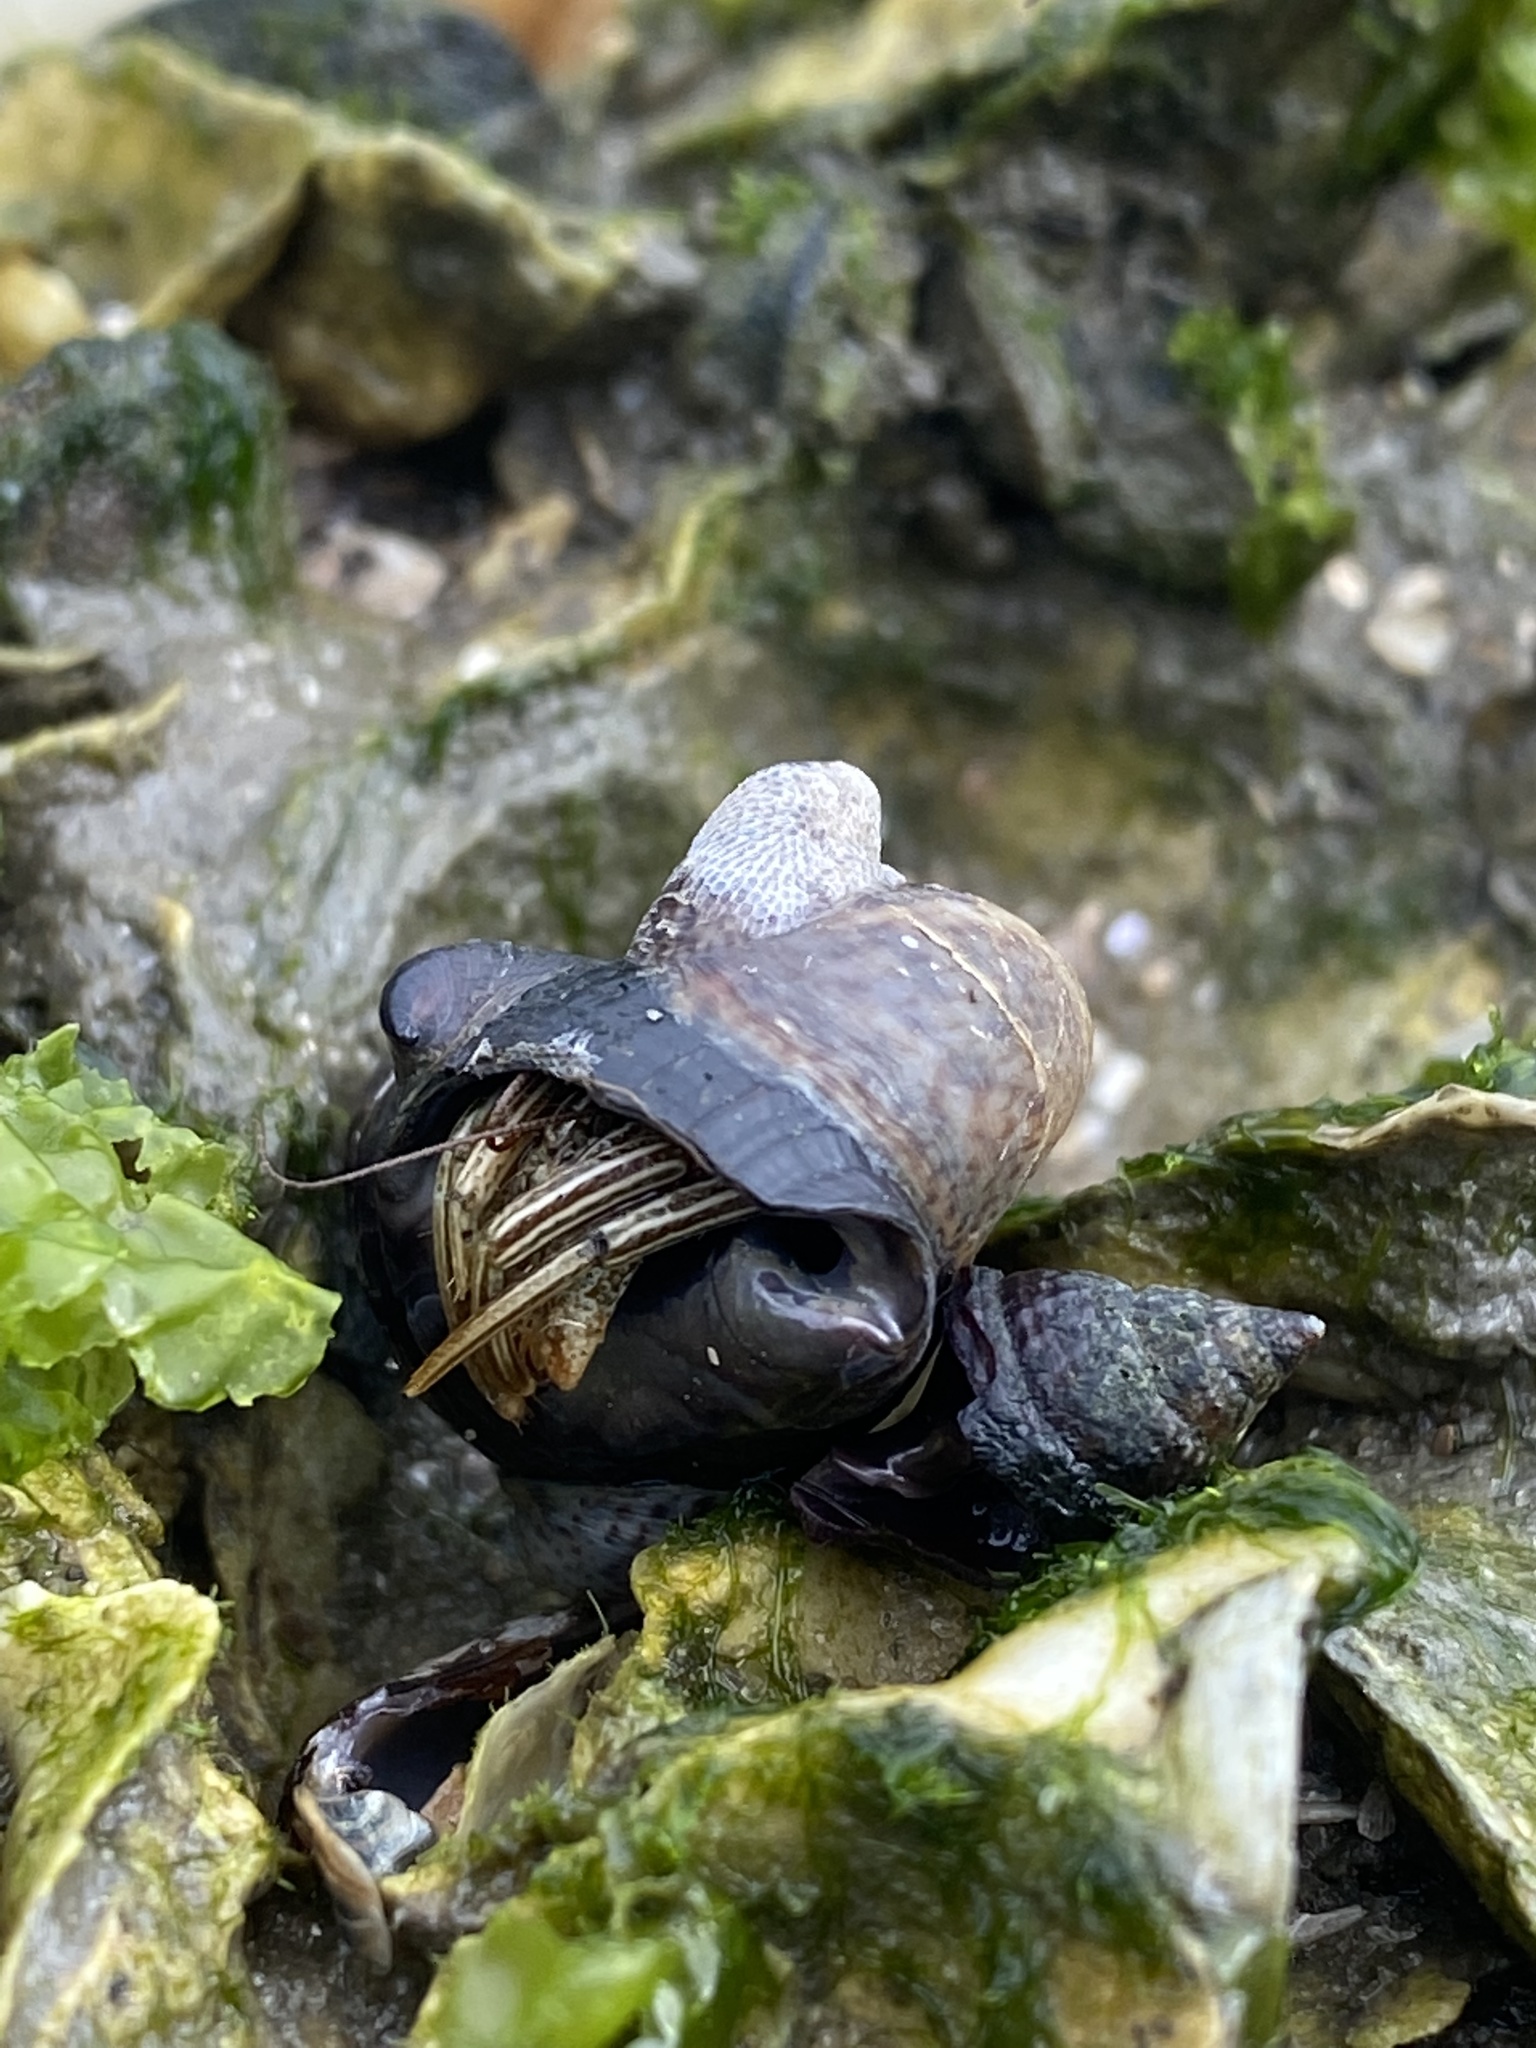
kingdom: Animalia
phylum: Arthropoda
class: Malacostraca
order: Decapoda
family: Diogenidae
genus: Clibanarius
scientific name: Clibanarius vittatus
